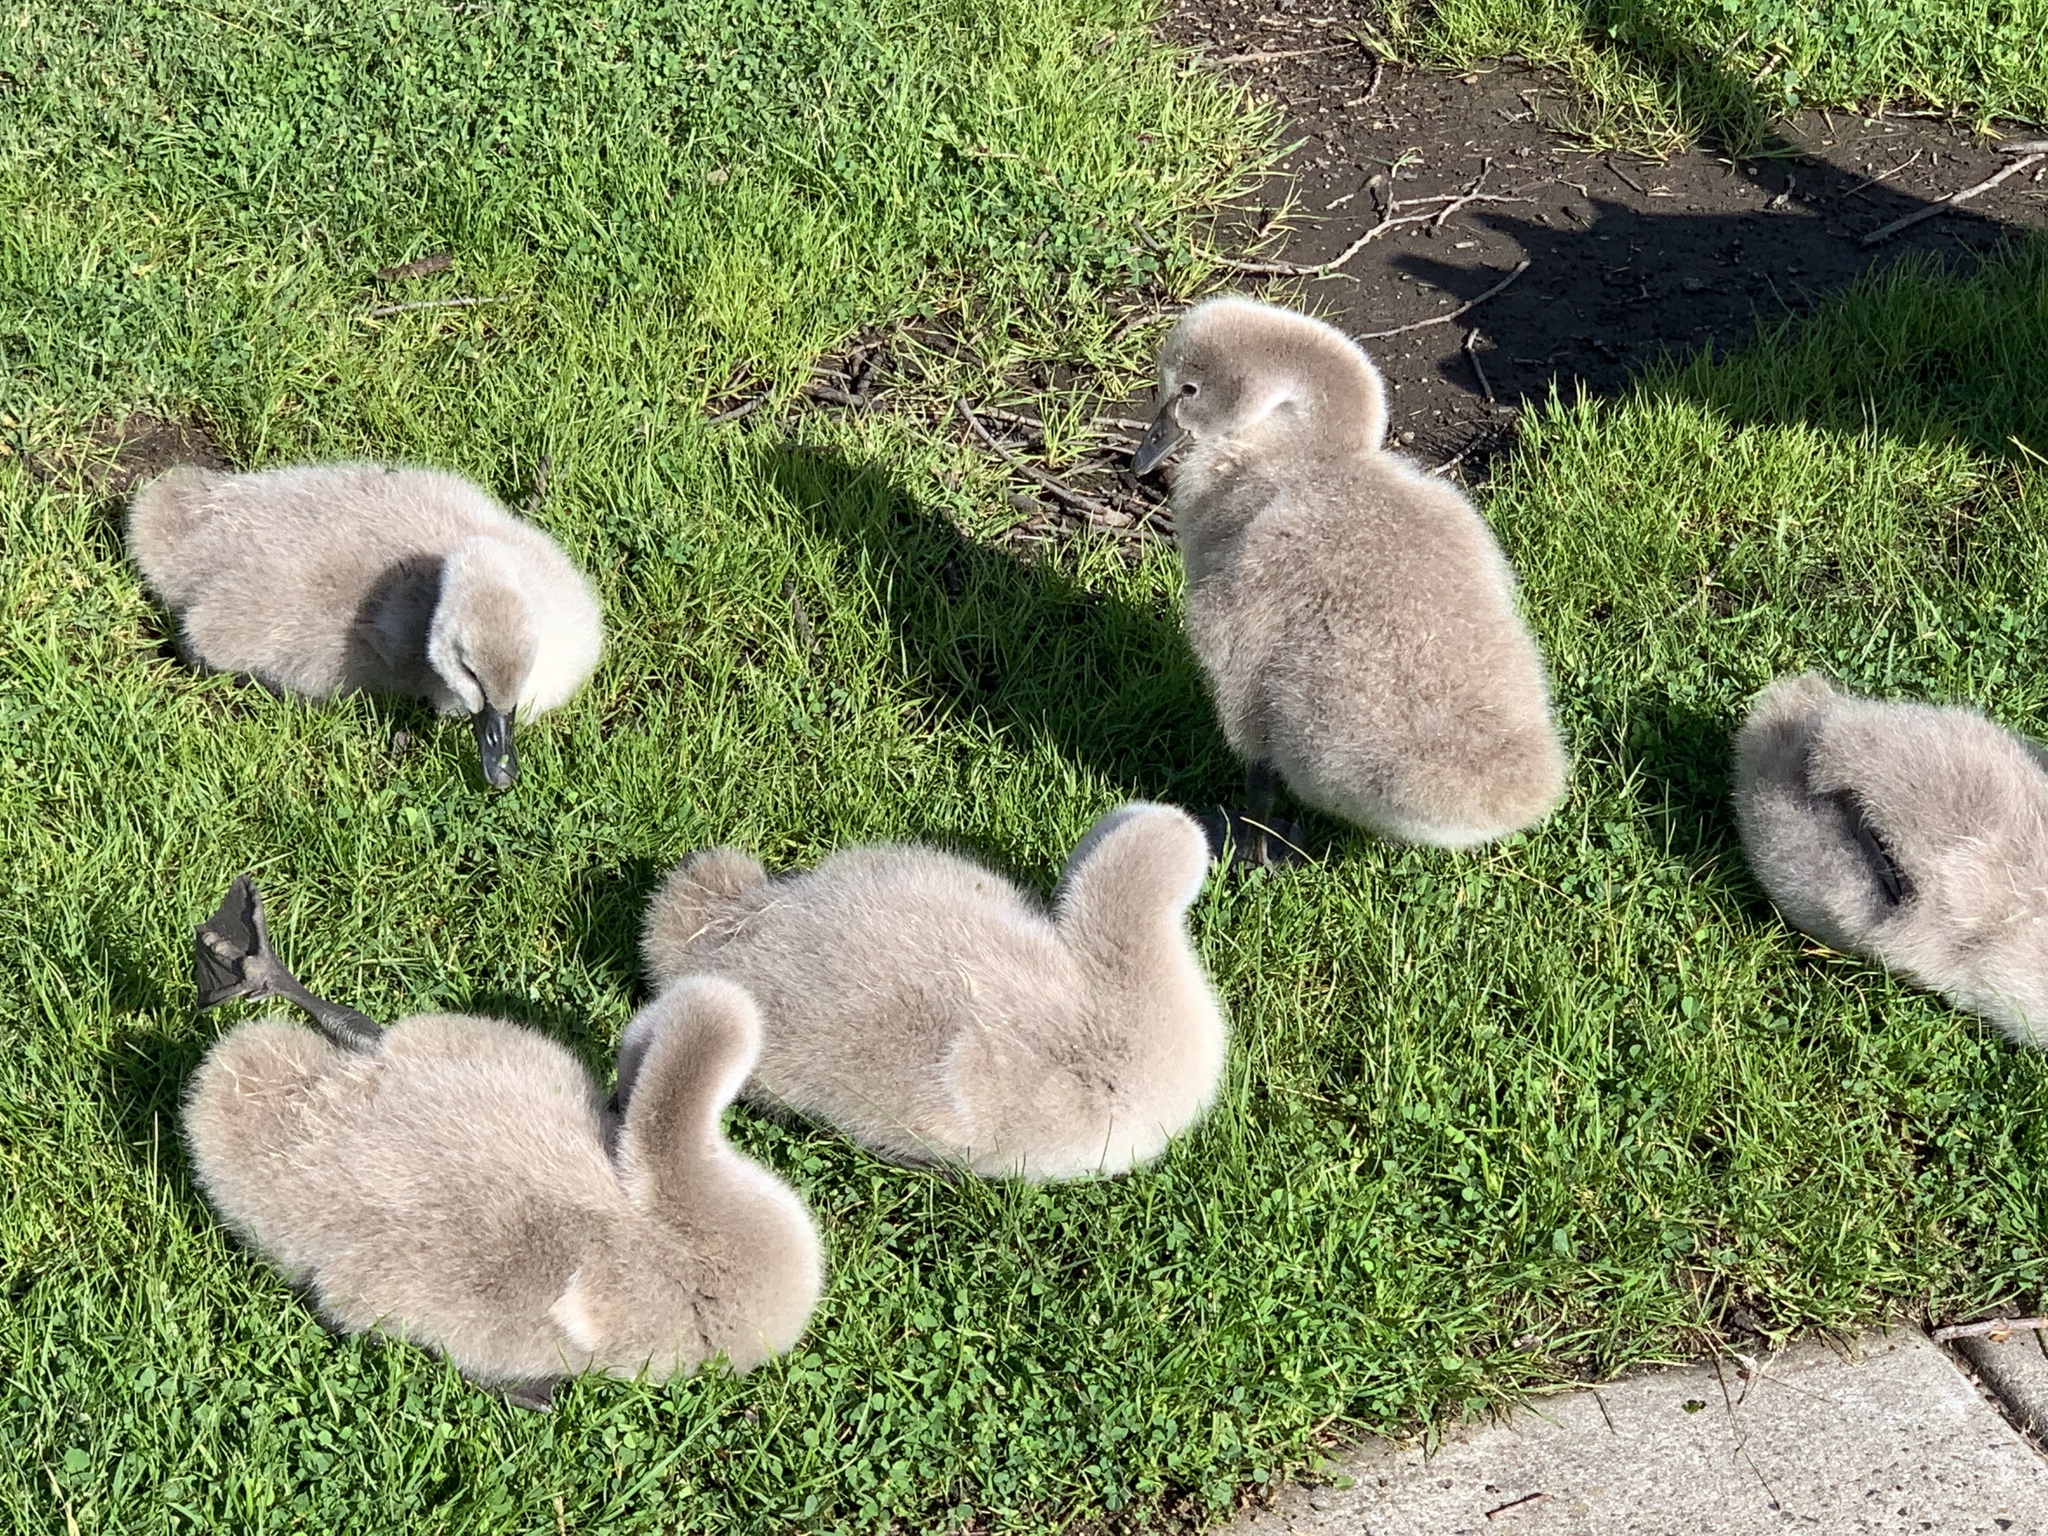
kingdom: Animalia
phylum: Chordata
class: Aves
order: Anseriformes
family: Anatidae
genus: Cygnus
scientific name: Cygnus atratus
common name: Black swan
